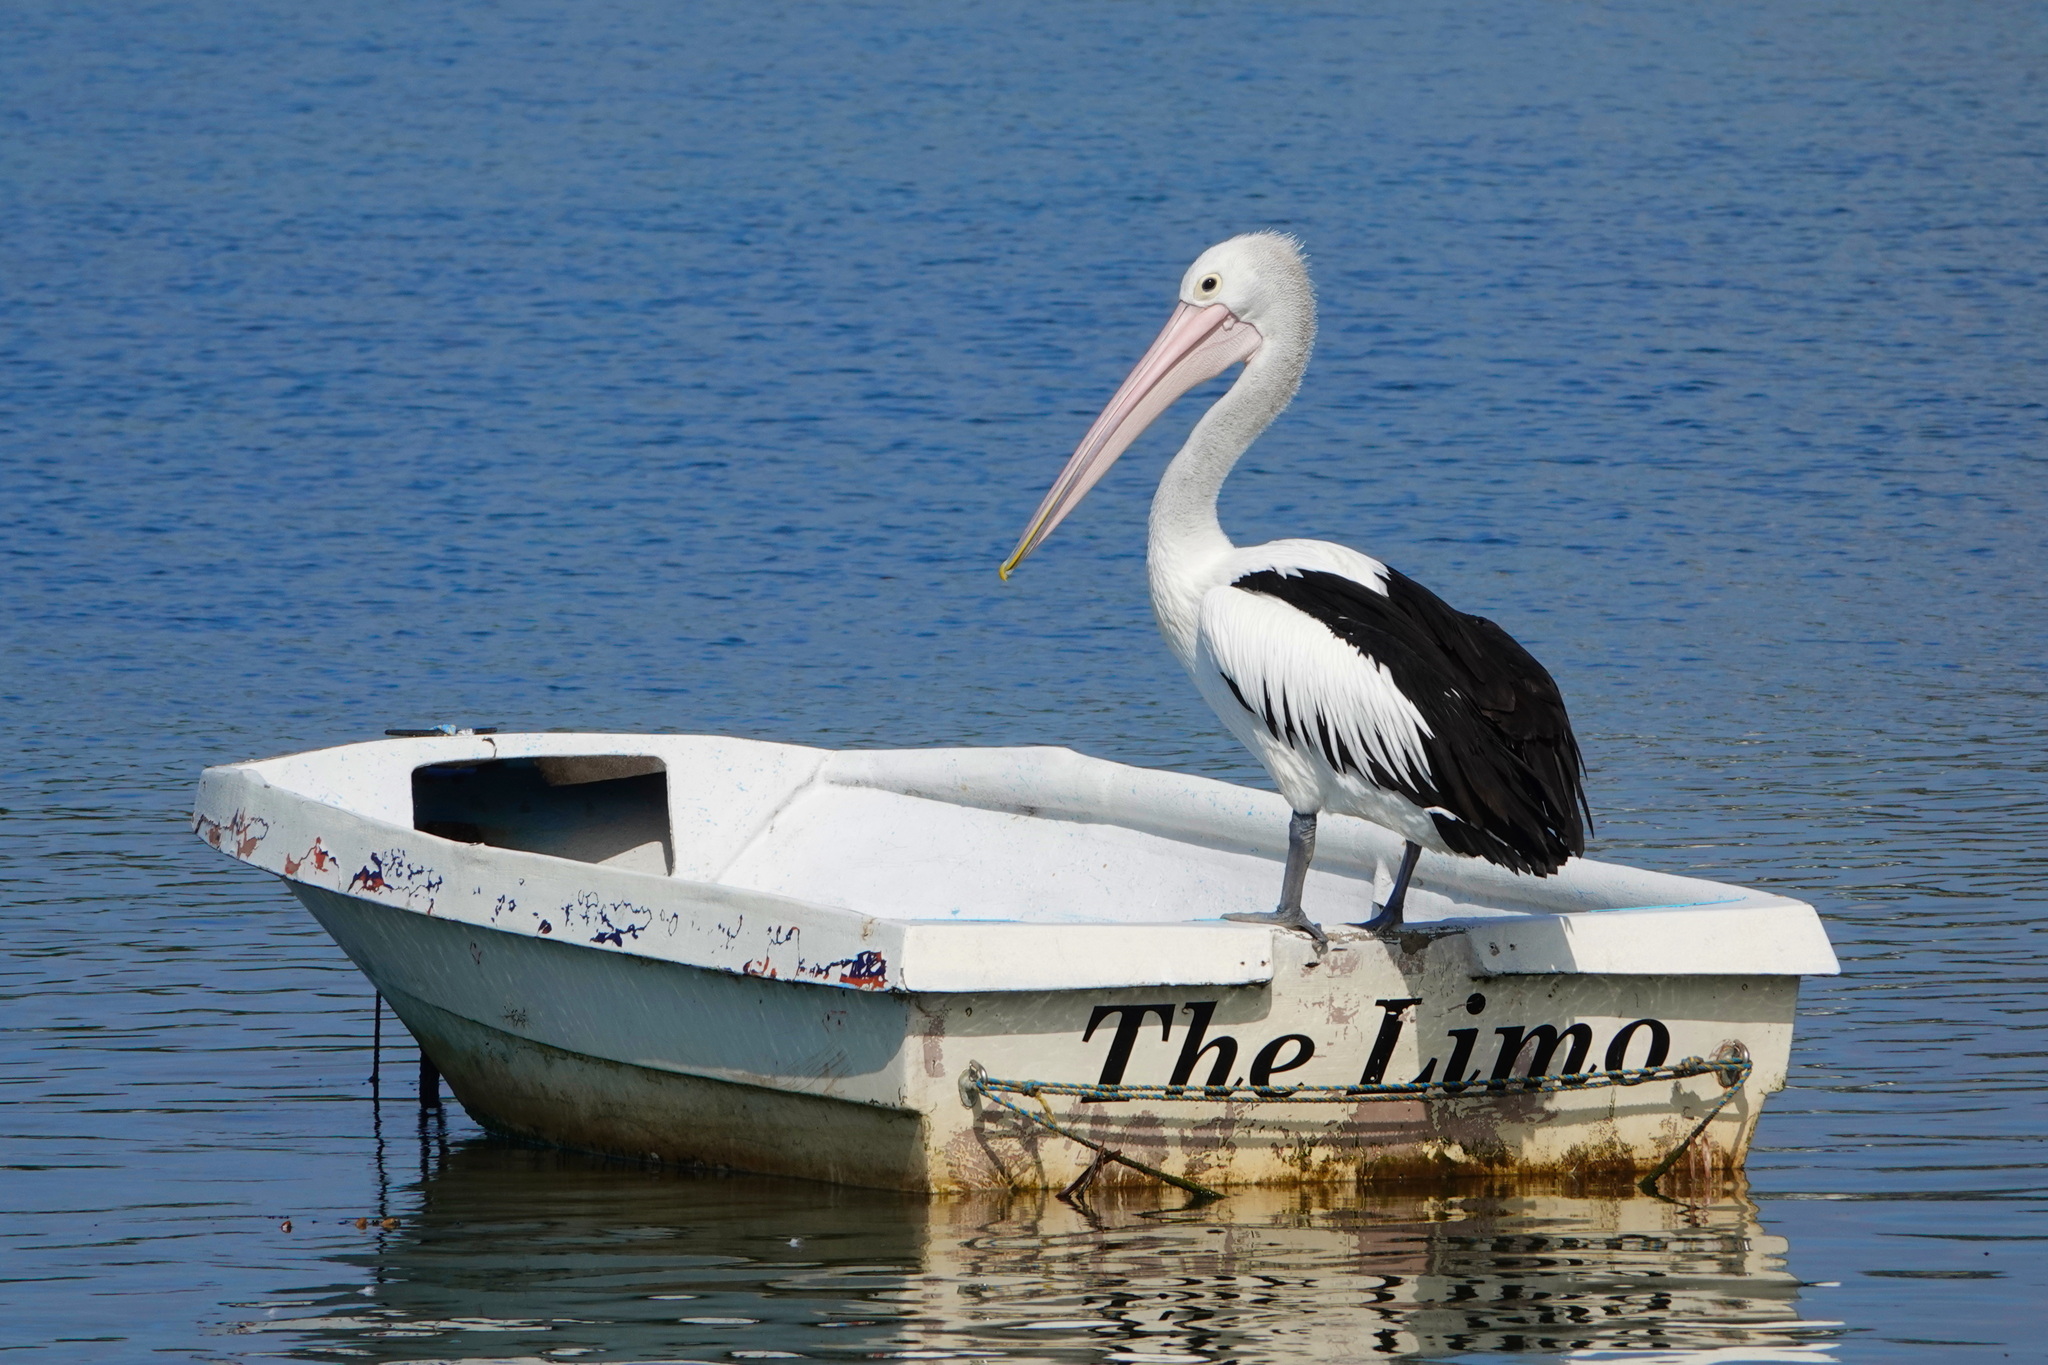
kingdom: Animalia
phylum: Chordata
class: Aves
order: Pelecaniformes
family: Pelecanidae
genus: Pelecanus
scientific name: Pelecanus conspicillatus
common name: Australian pelican
